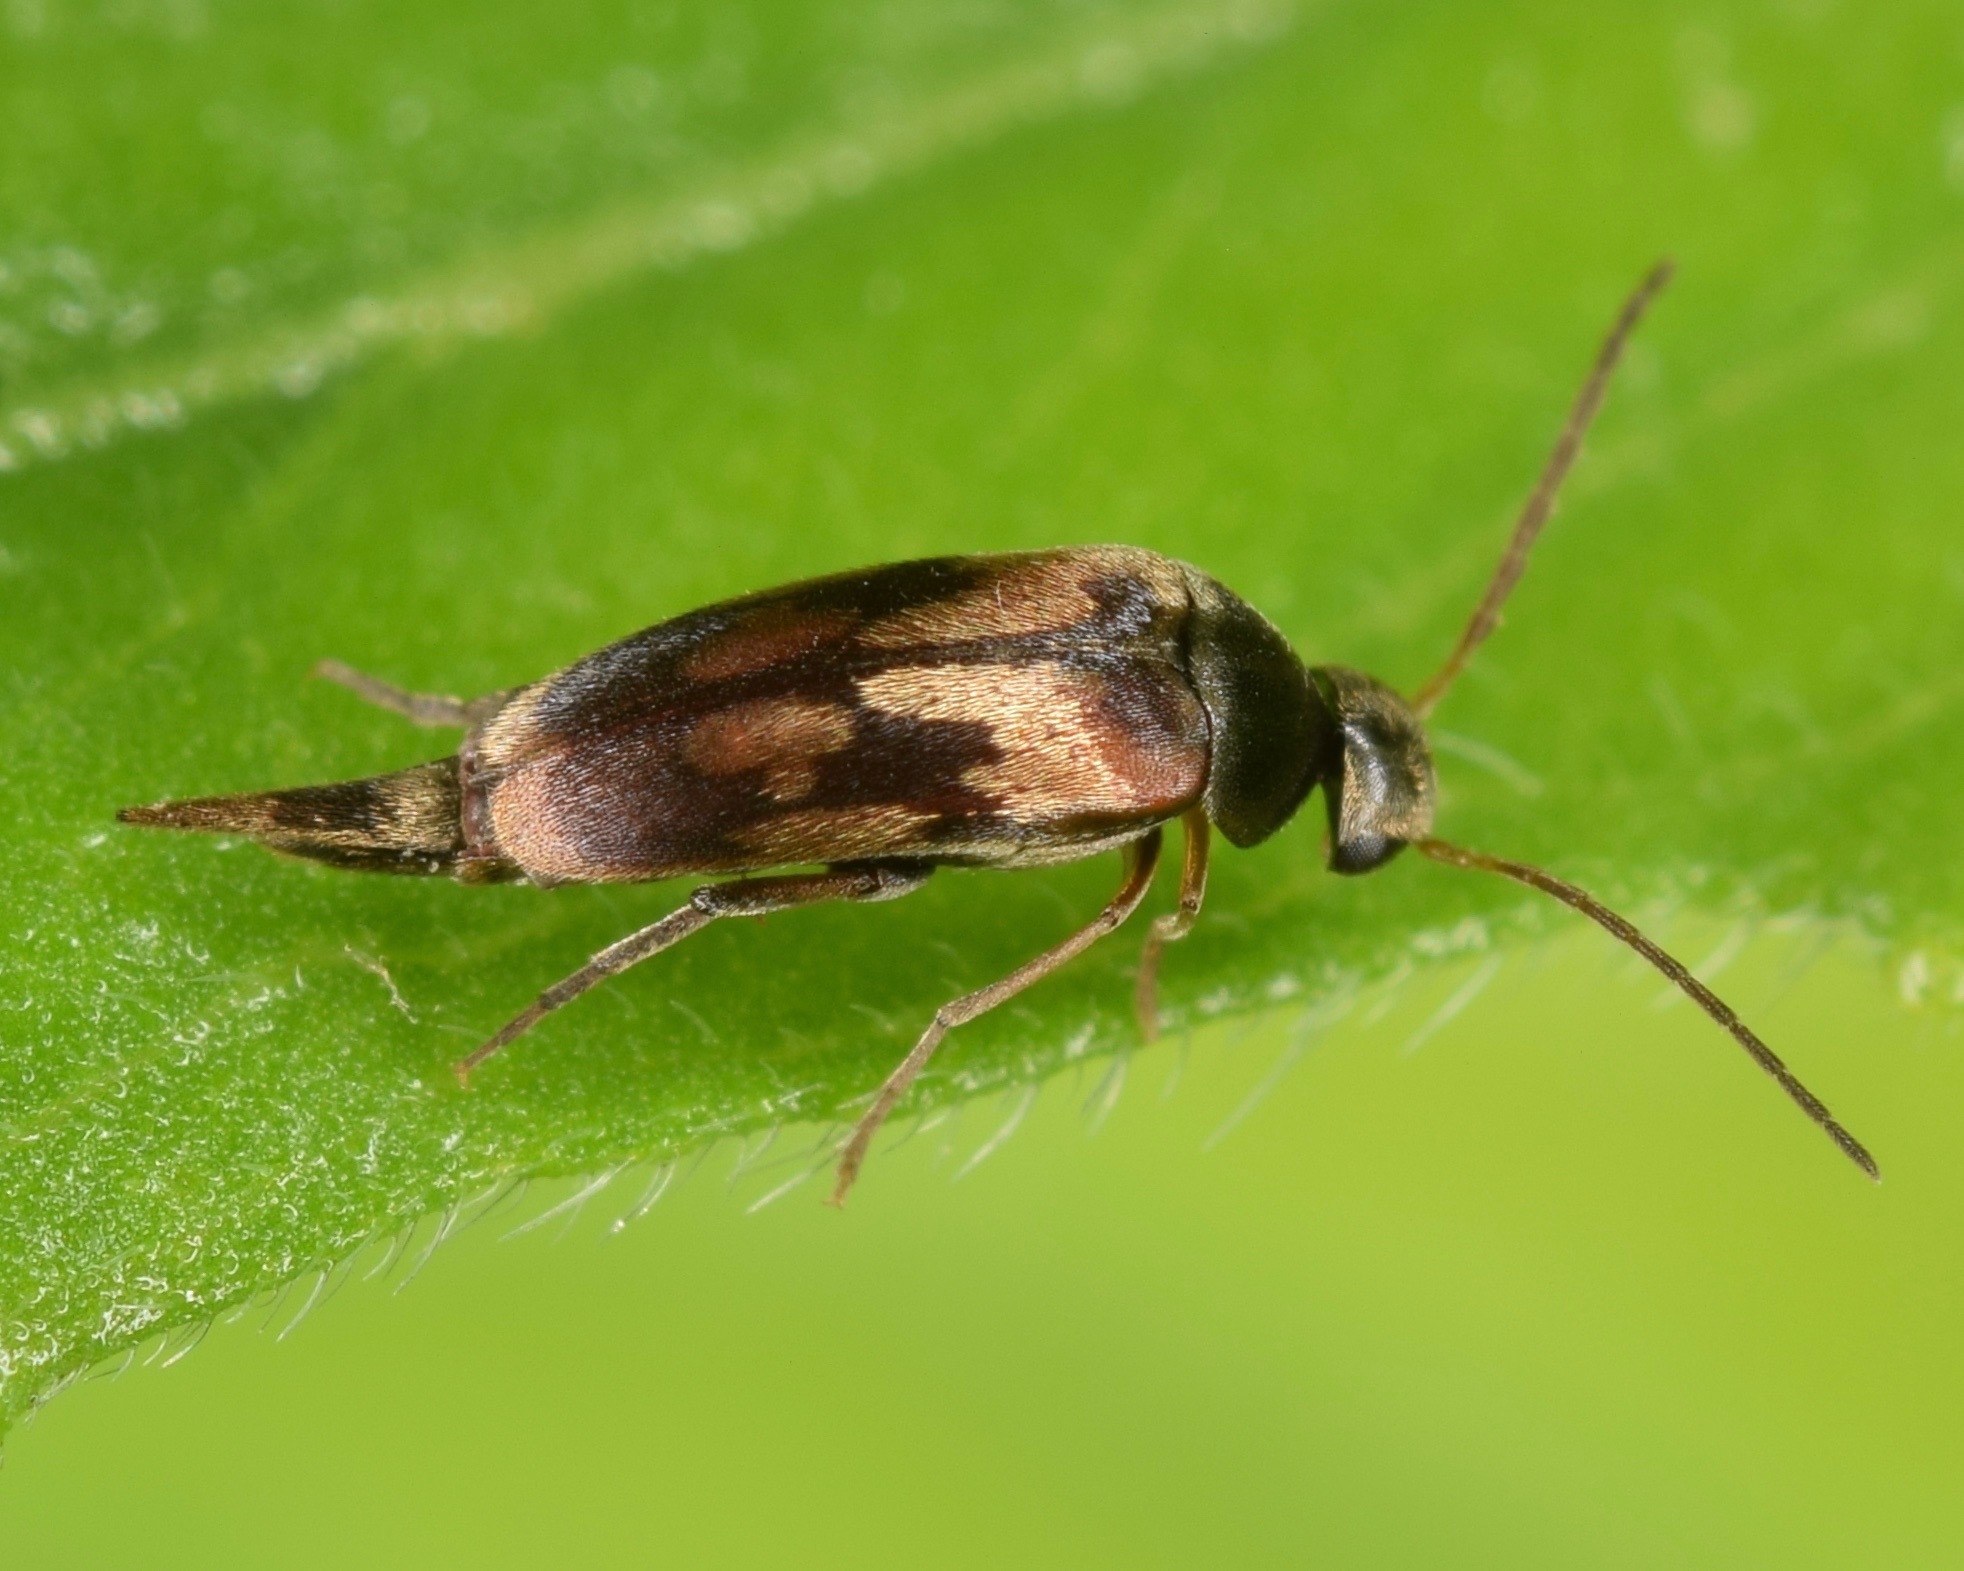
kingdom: Animalia
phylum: Arthropoda
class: Insecta
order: Coleoptera
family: Mordellidae
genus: Falsomordellistena
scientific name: Falsomordellistena bihamata
